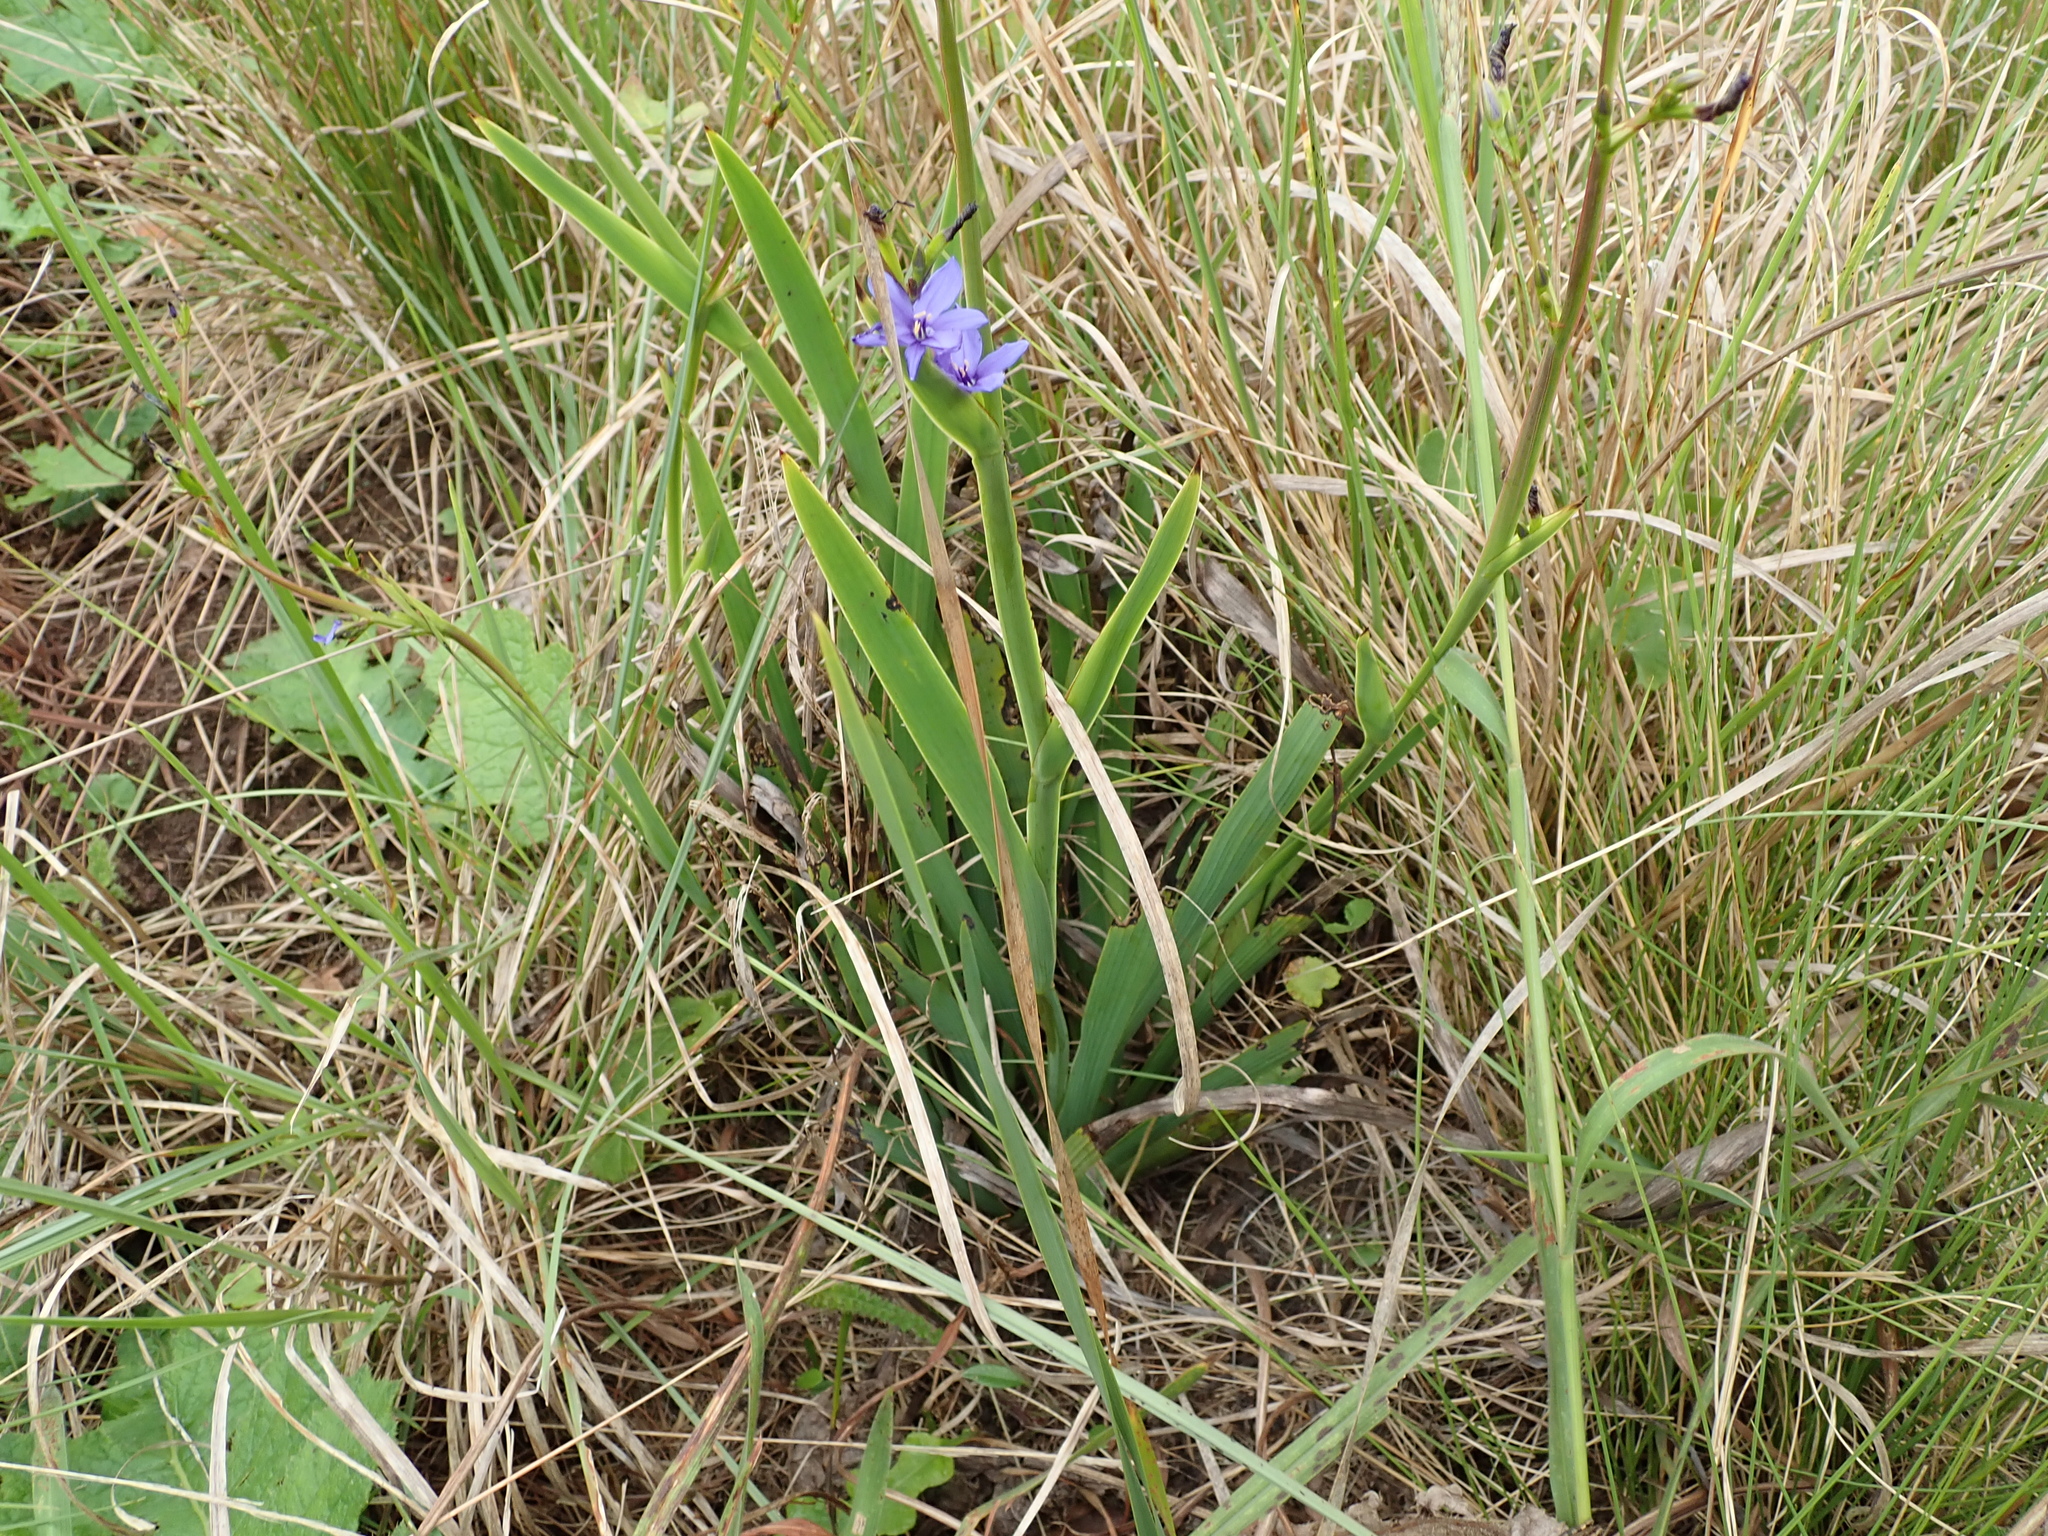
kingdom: Plantae
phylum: Tracheophyta
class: Liliopsida
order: Asparagales
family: Iridaceae
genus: Aristea
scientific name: Aristea torulosa
